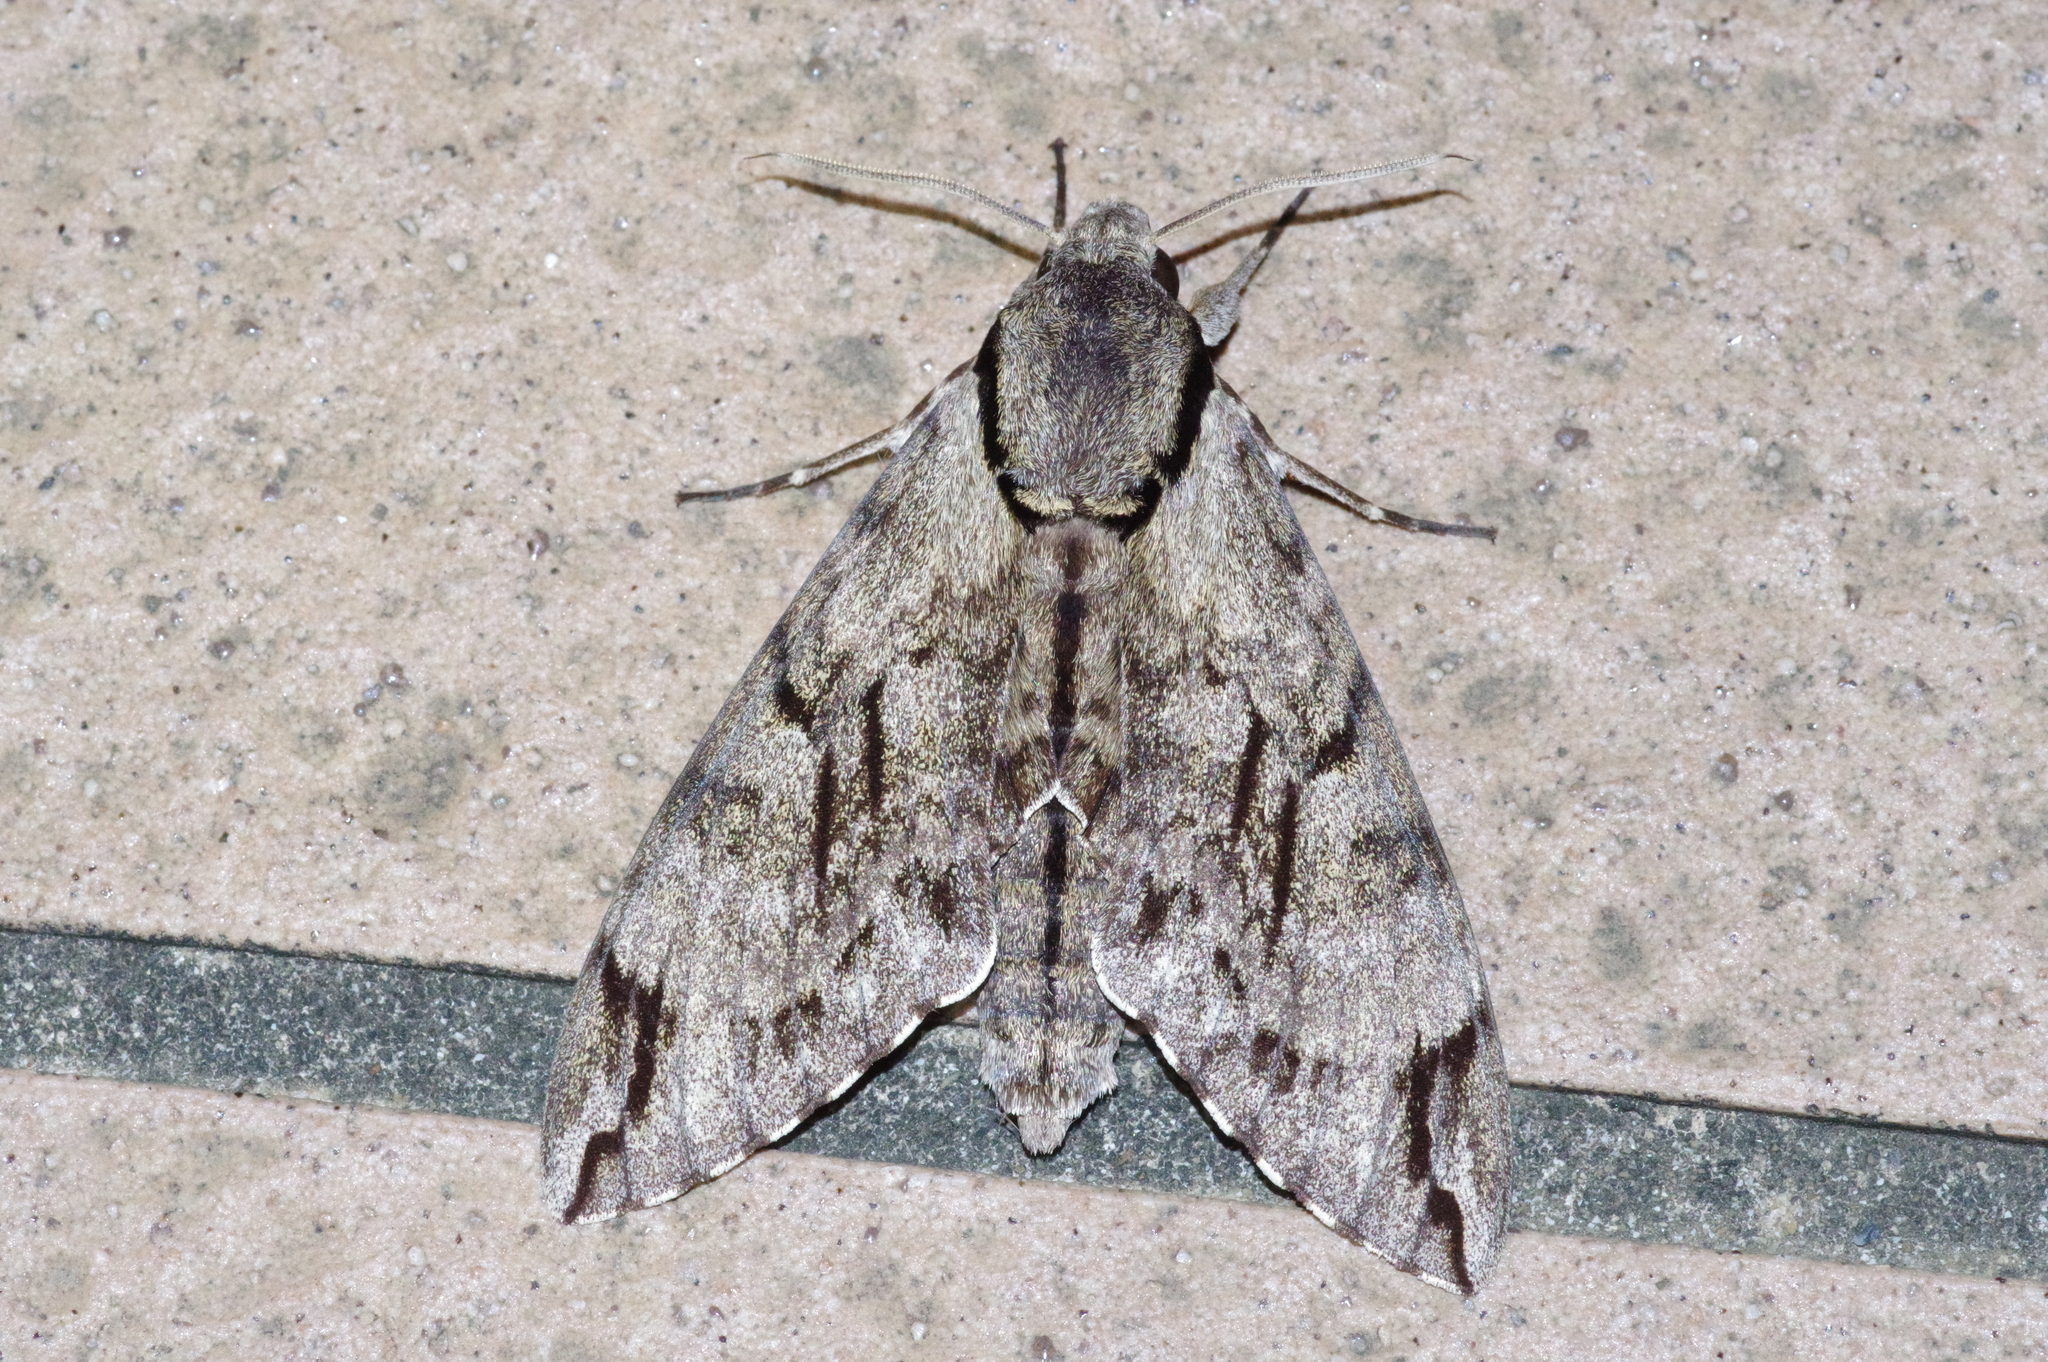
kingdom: Animalia
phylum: Arthropoda
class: Insecta
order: Lepidoptera
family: Sphingidae
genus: Psilogramma
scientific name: Psilogramma increta
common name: Gray hawk moth
